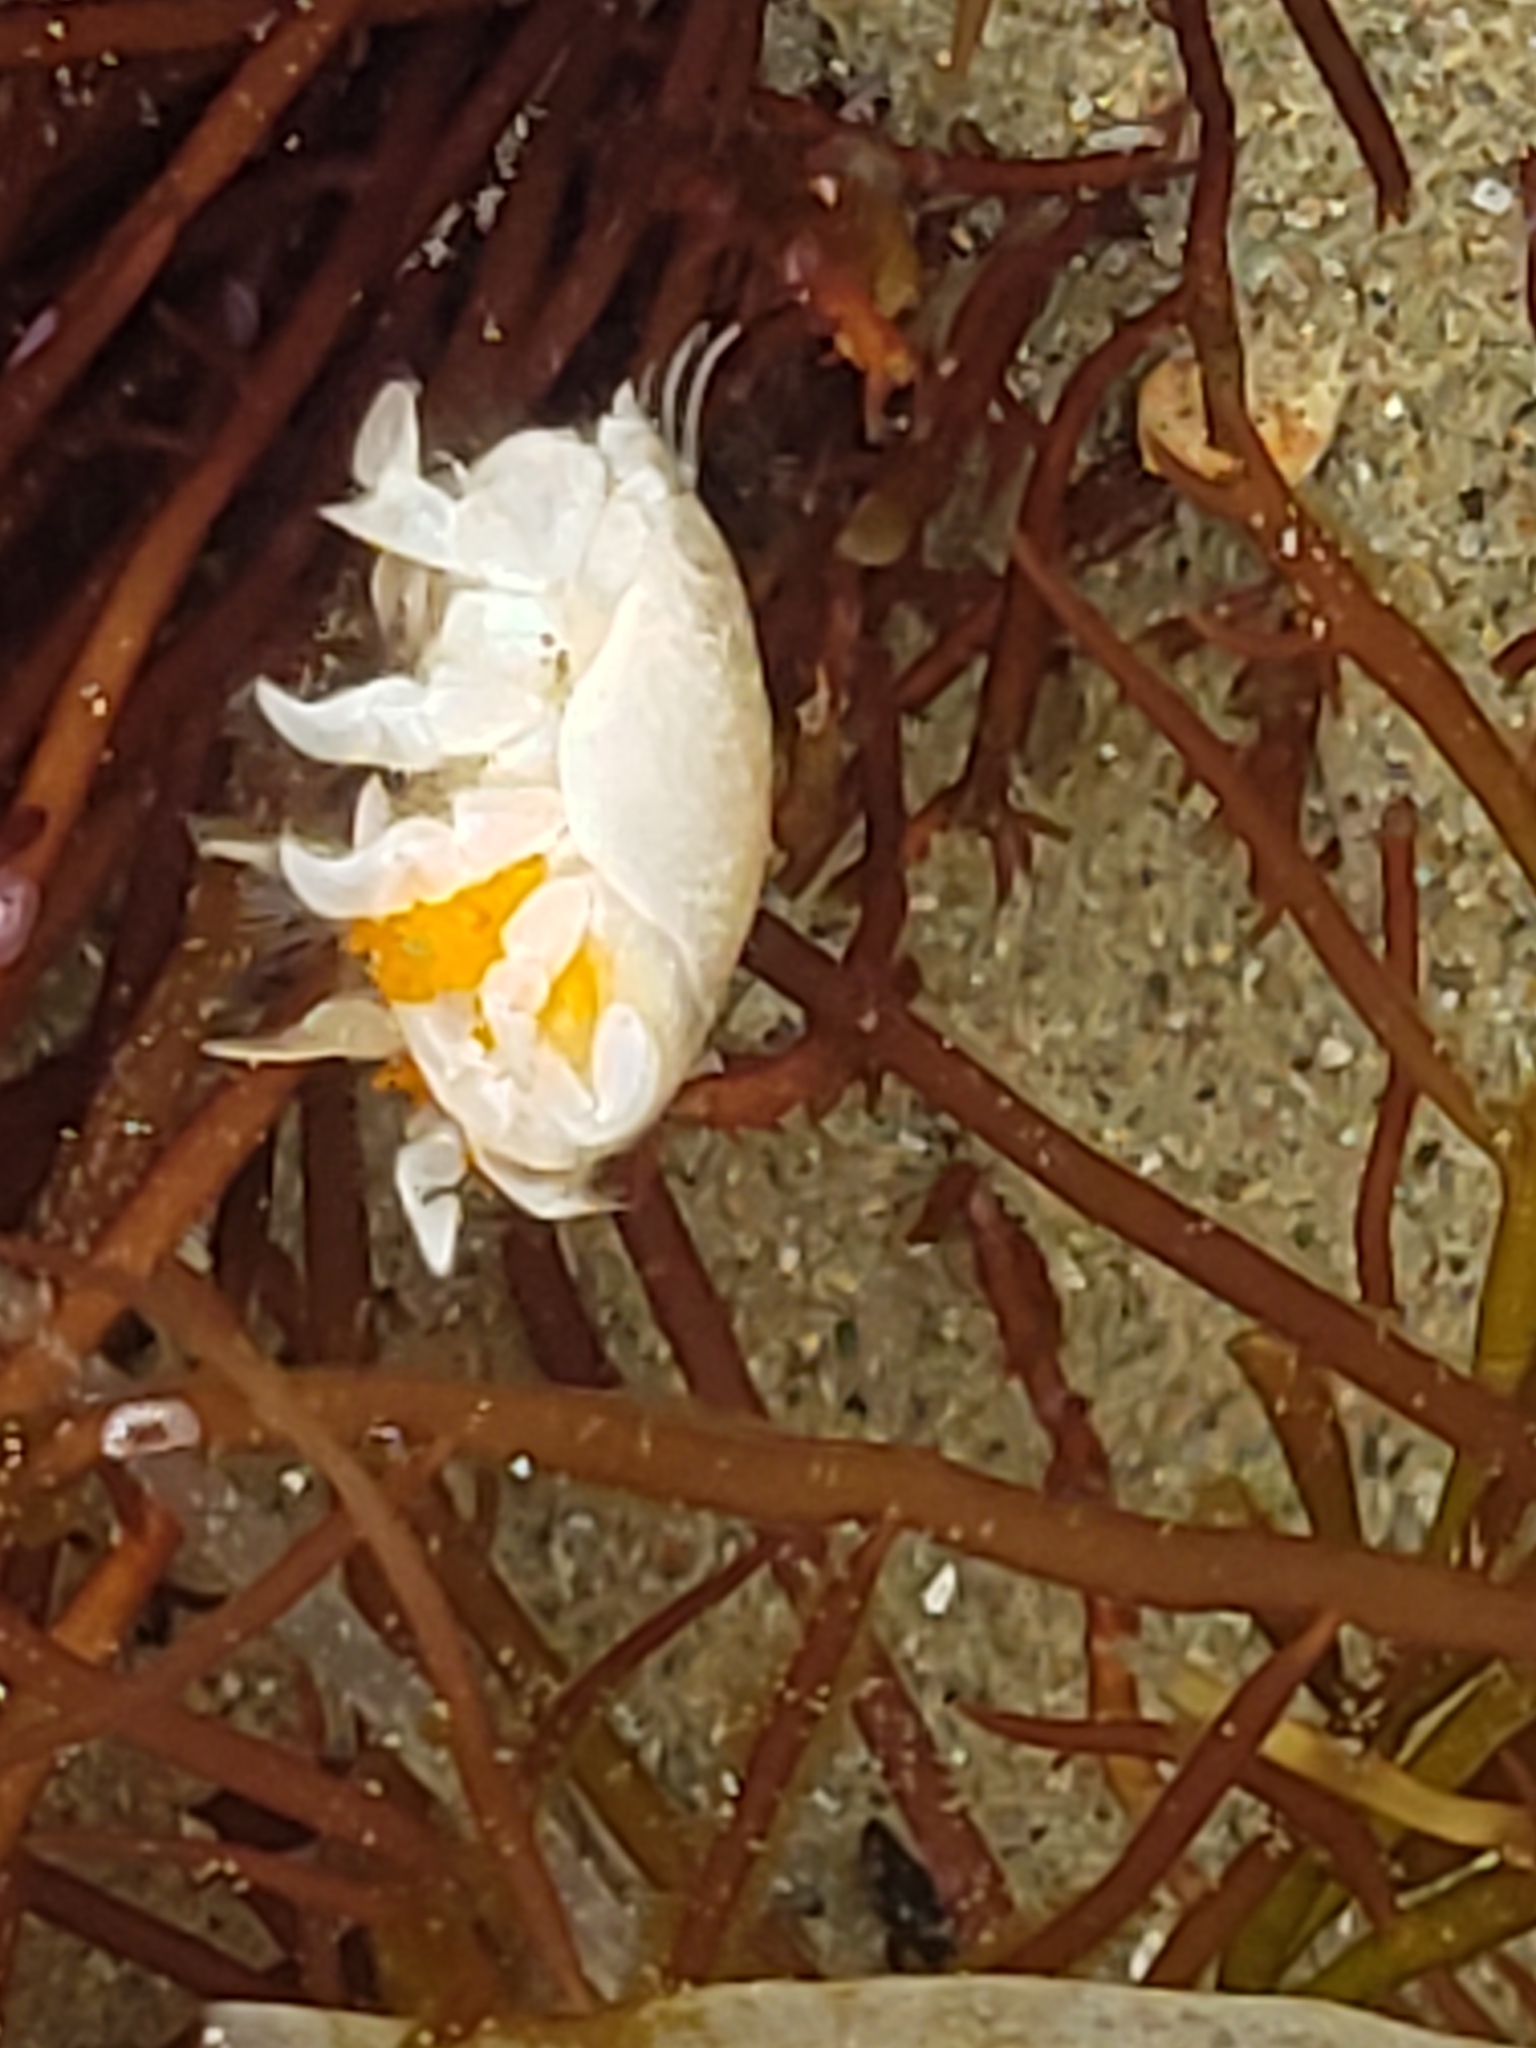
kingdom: Animalia
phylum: Arthropoda
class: Malacostraca
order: Decapoda
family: Hippidae
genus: Emerita
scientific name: Emerita analoga
